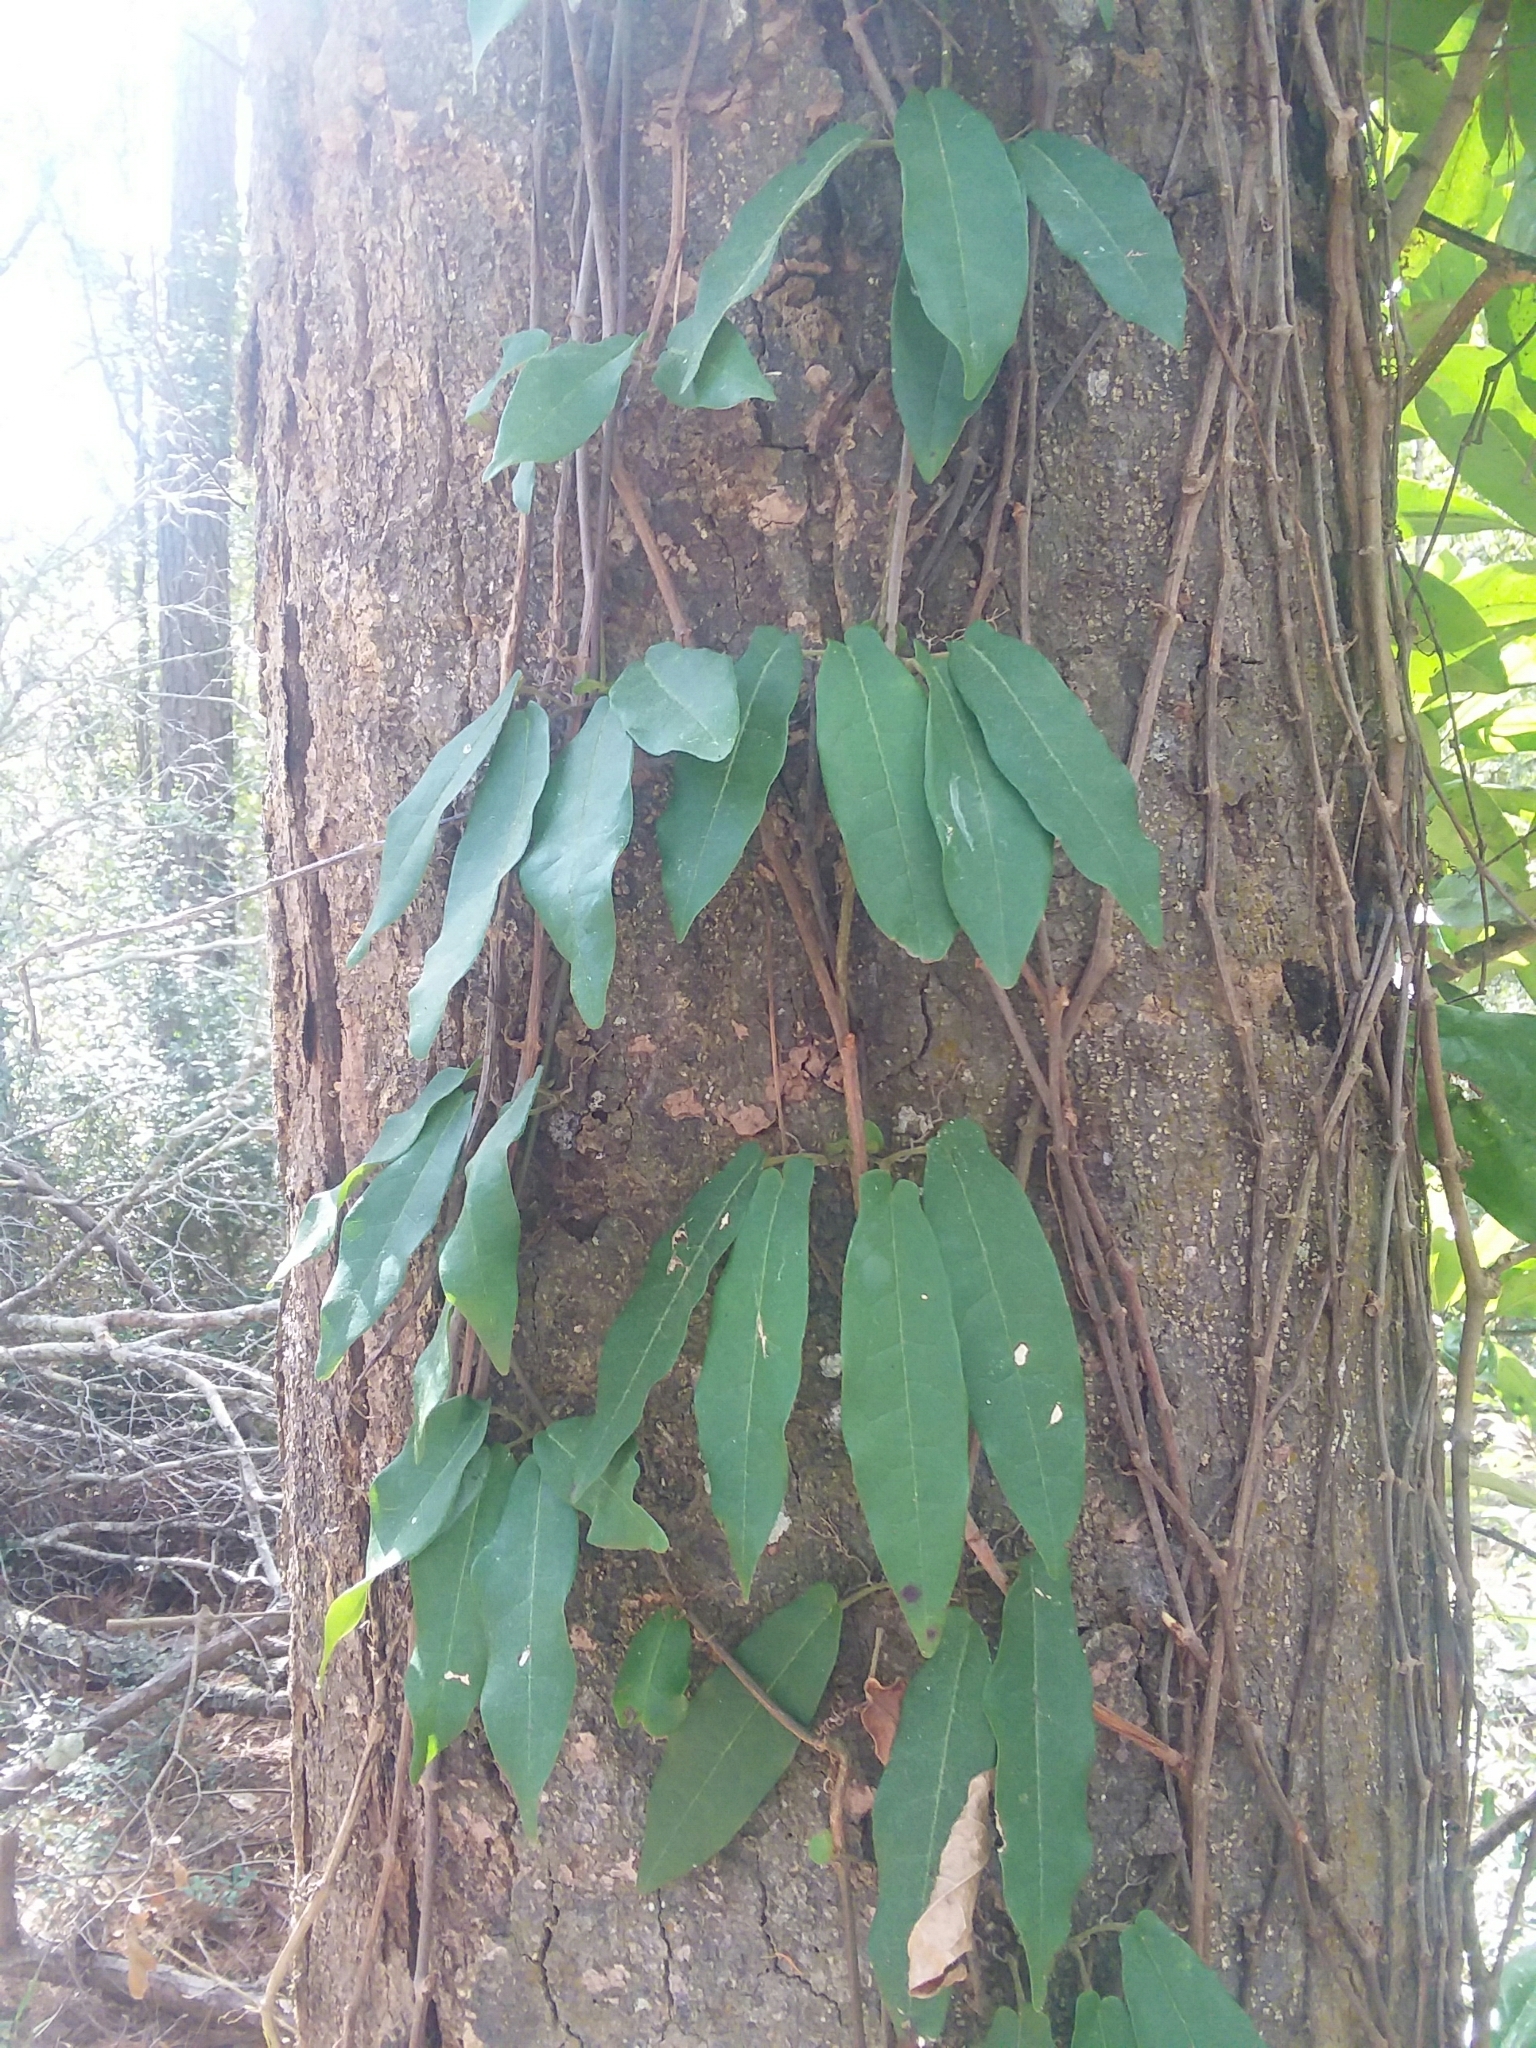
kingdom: Plantae
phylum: Tracheophyta
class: Magnoliopsida
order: Lamiales
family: Bignoniaceae
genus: Bignonia
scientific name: Bignonia capreolata
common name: Crossvine
